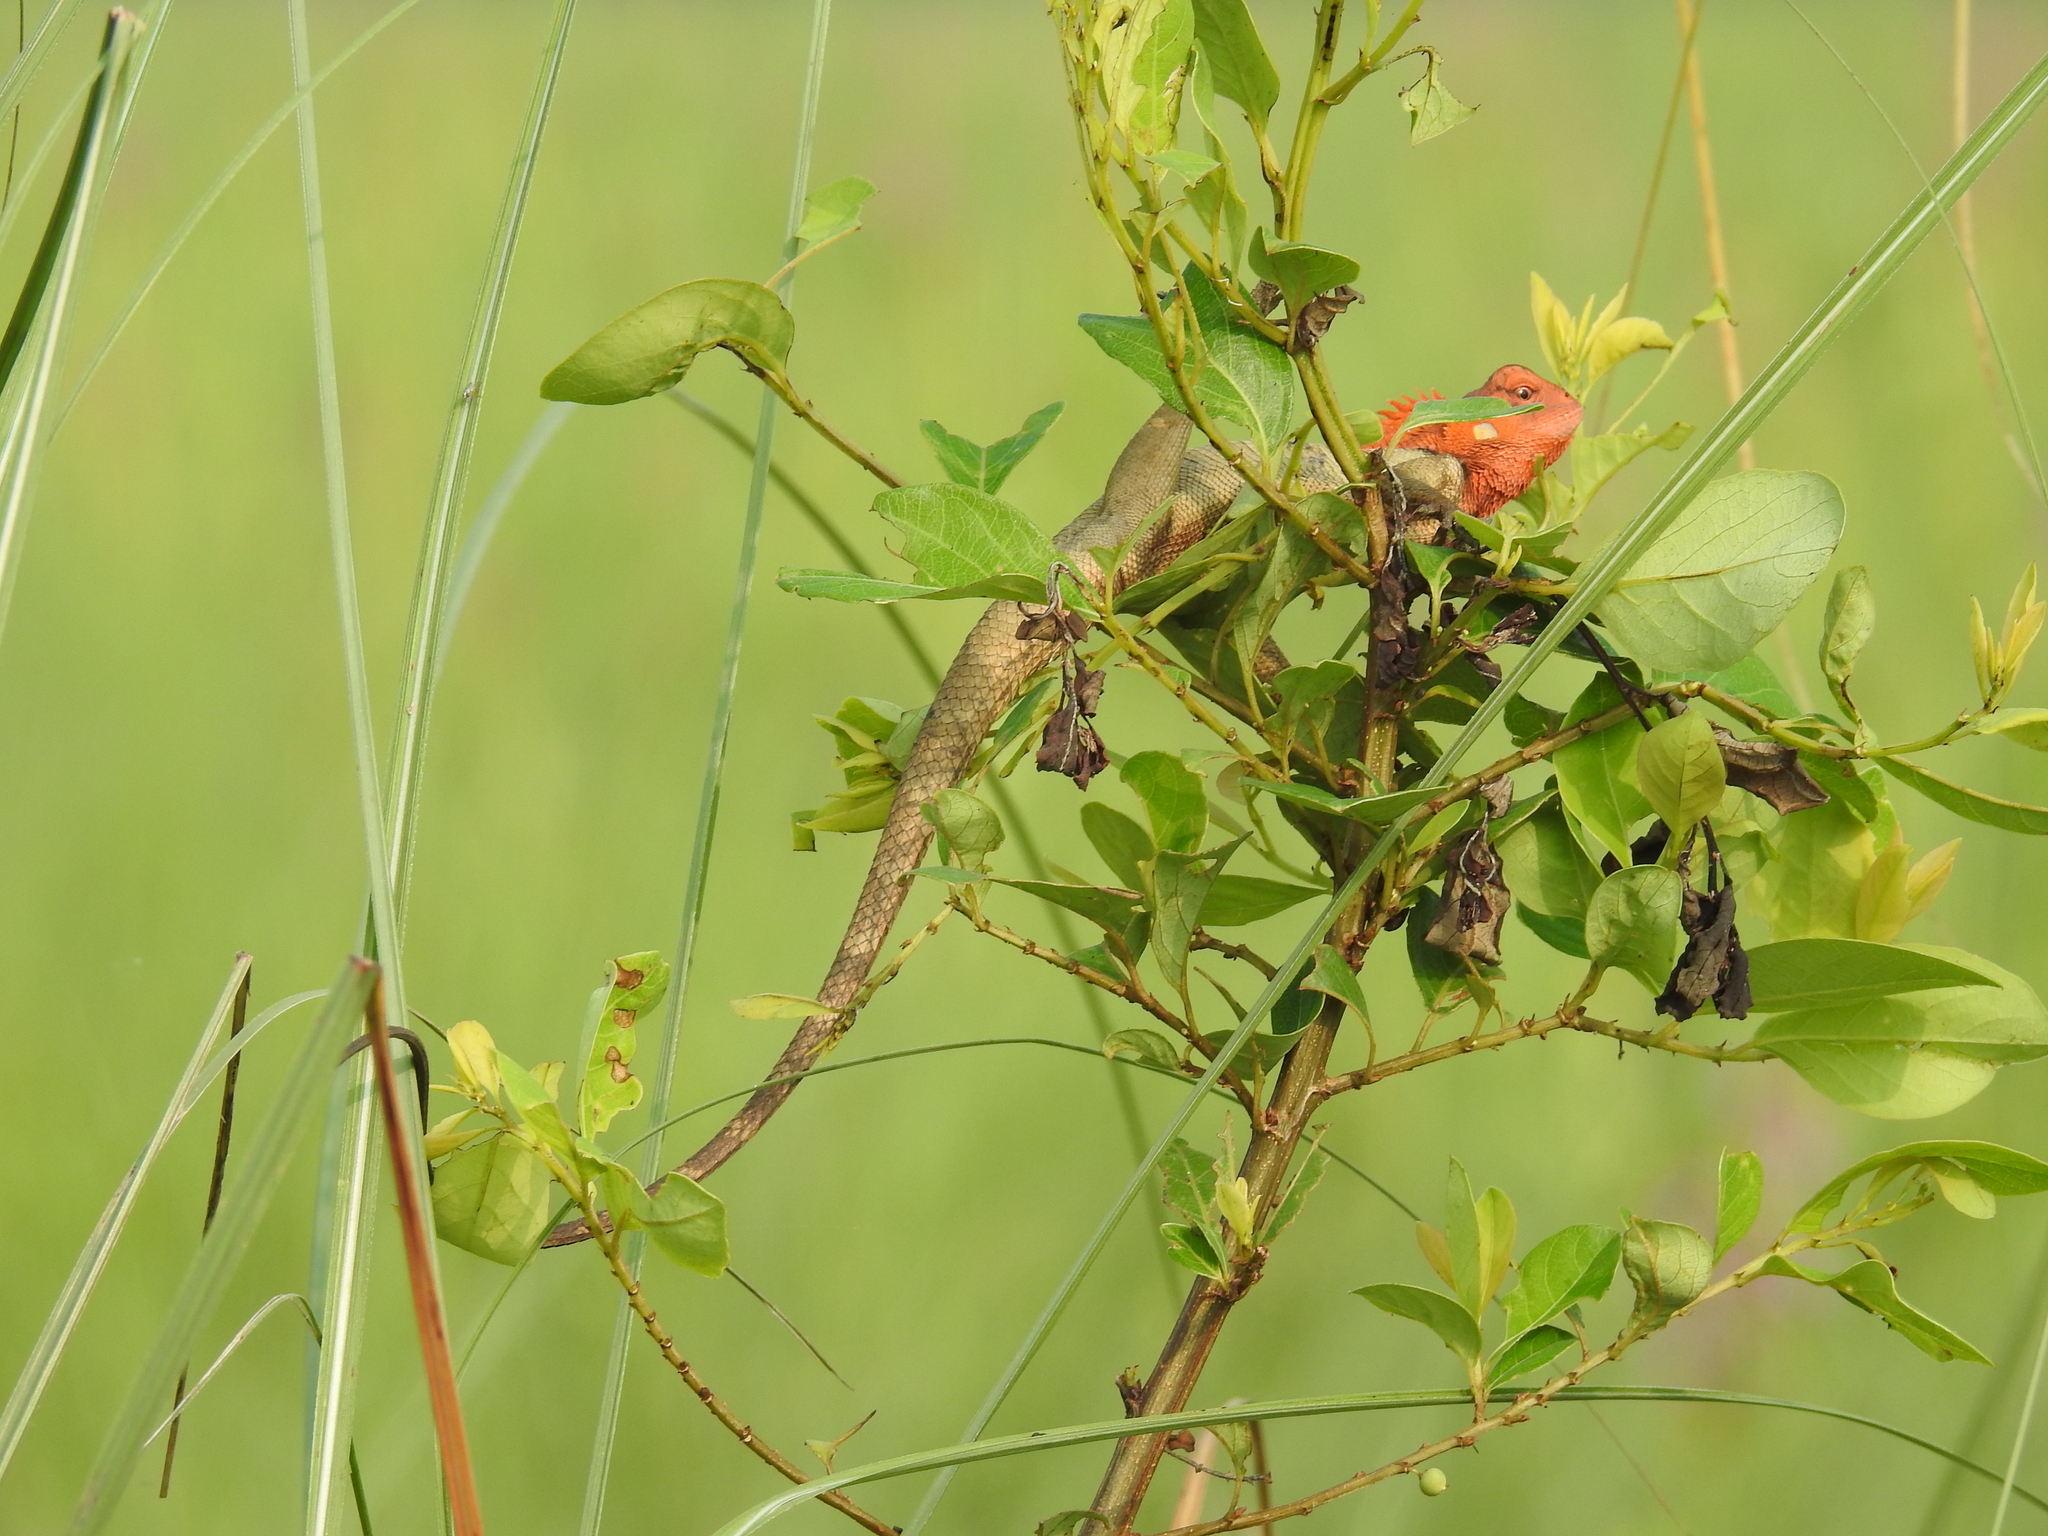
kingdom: Animalia
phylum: Chordata
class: Squamata
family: Agamidae
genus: Calotes
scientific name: Calotes versicolor
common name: Oriental garden lizard
